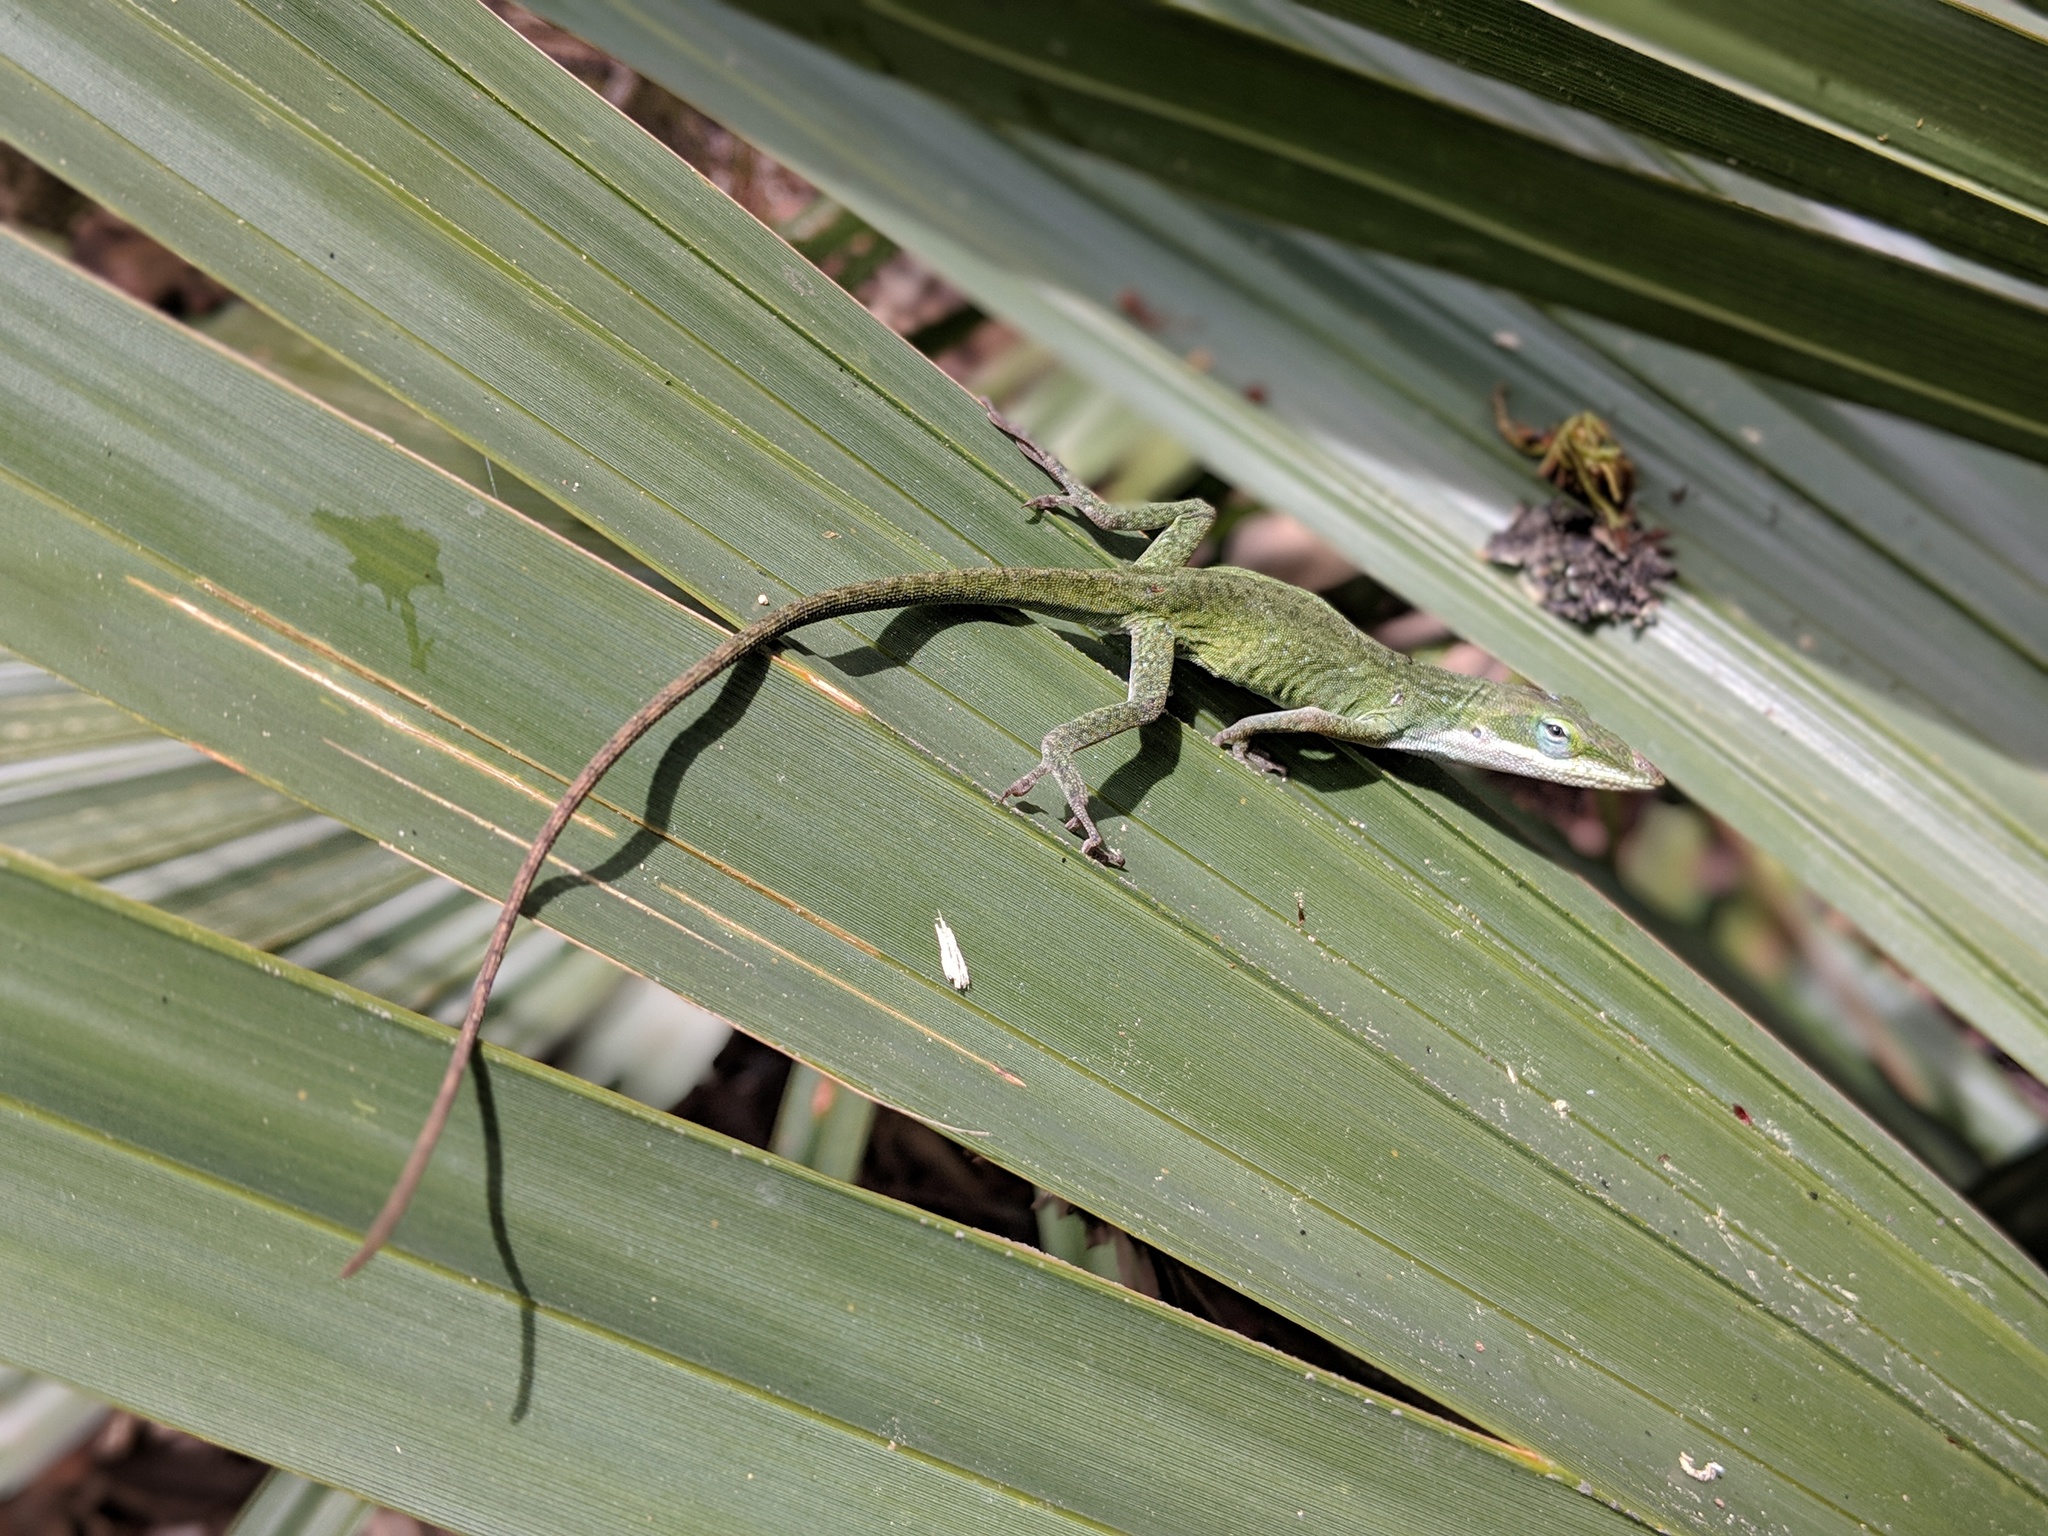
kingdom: Animalia
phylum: Chordata
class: Squamata
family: Dactyloidae
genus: Anolis
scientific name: Anolis carolinensis
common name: Green anole
